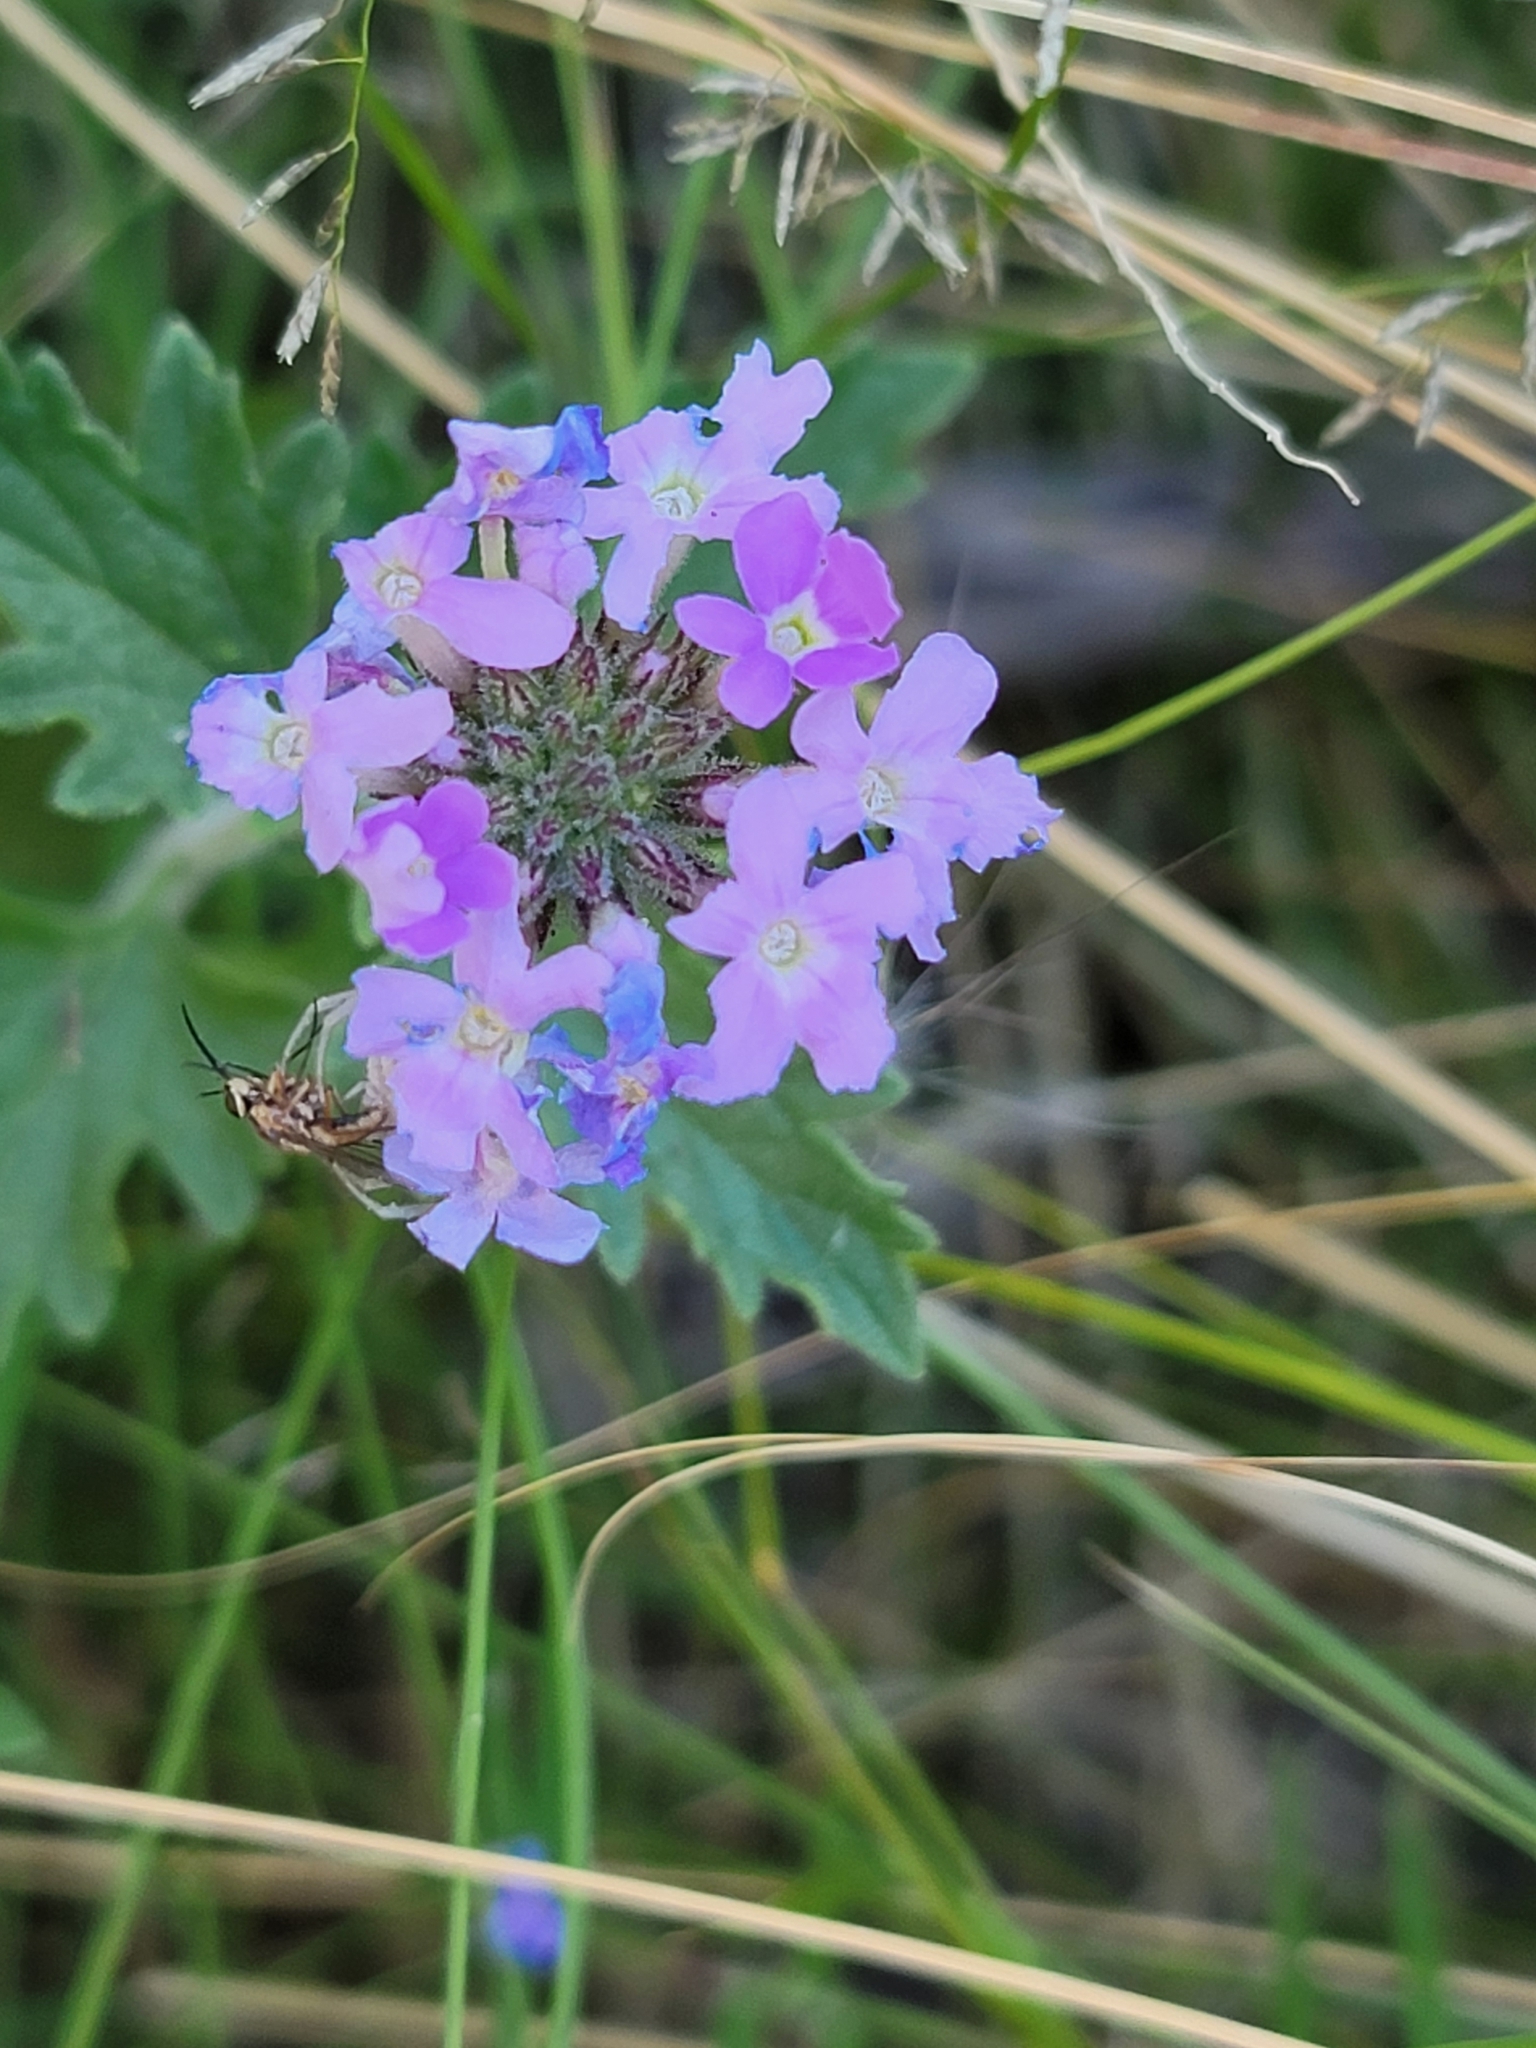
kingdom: Plantae
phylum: Tracheophyta
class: Magnoliopsida
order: Lamiales
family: Verbenaceae
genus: Verbena
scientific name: Verbena gooddingii
